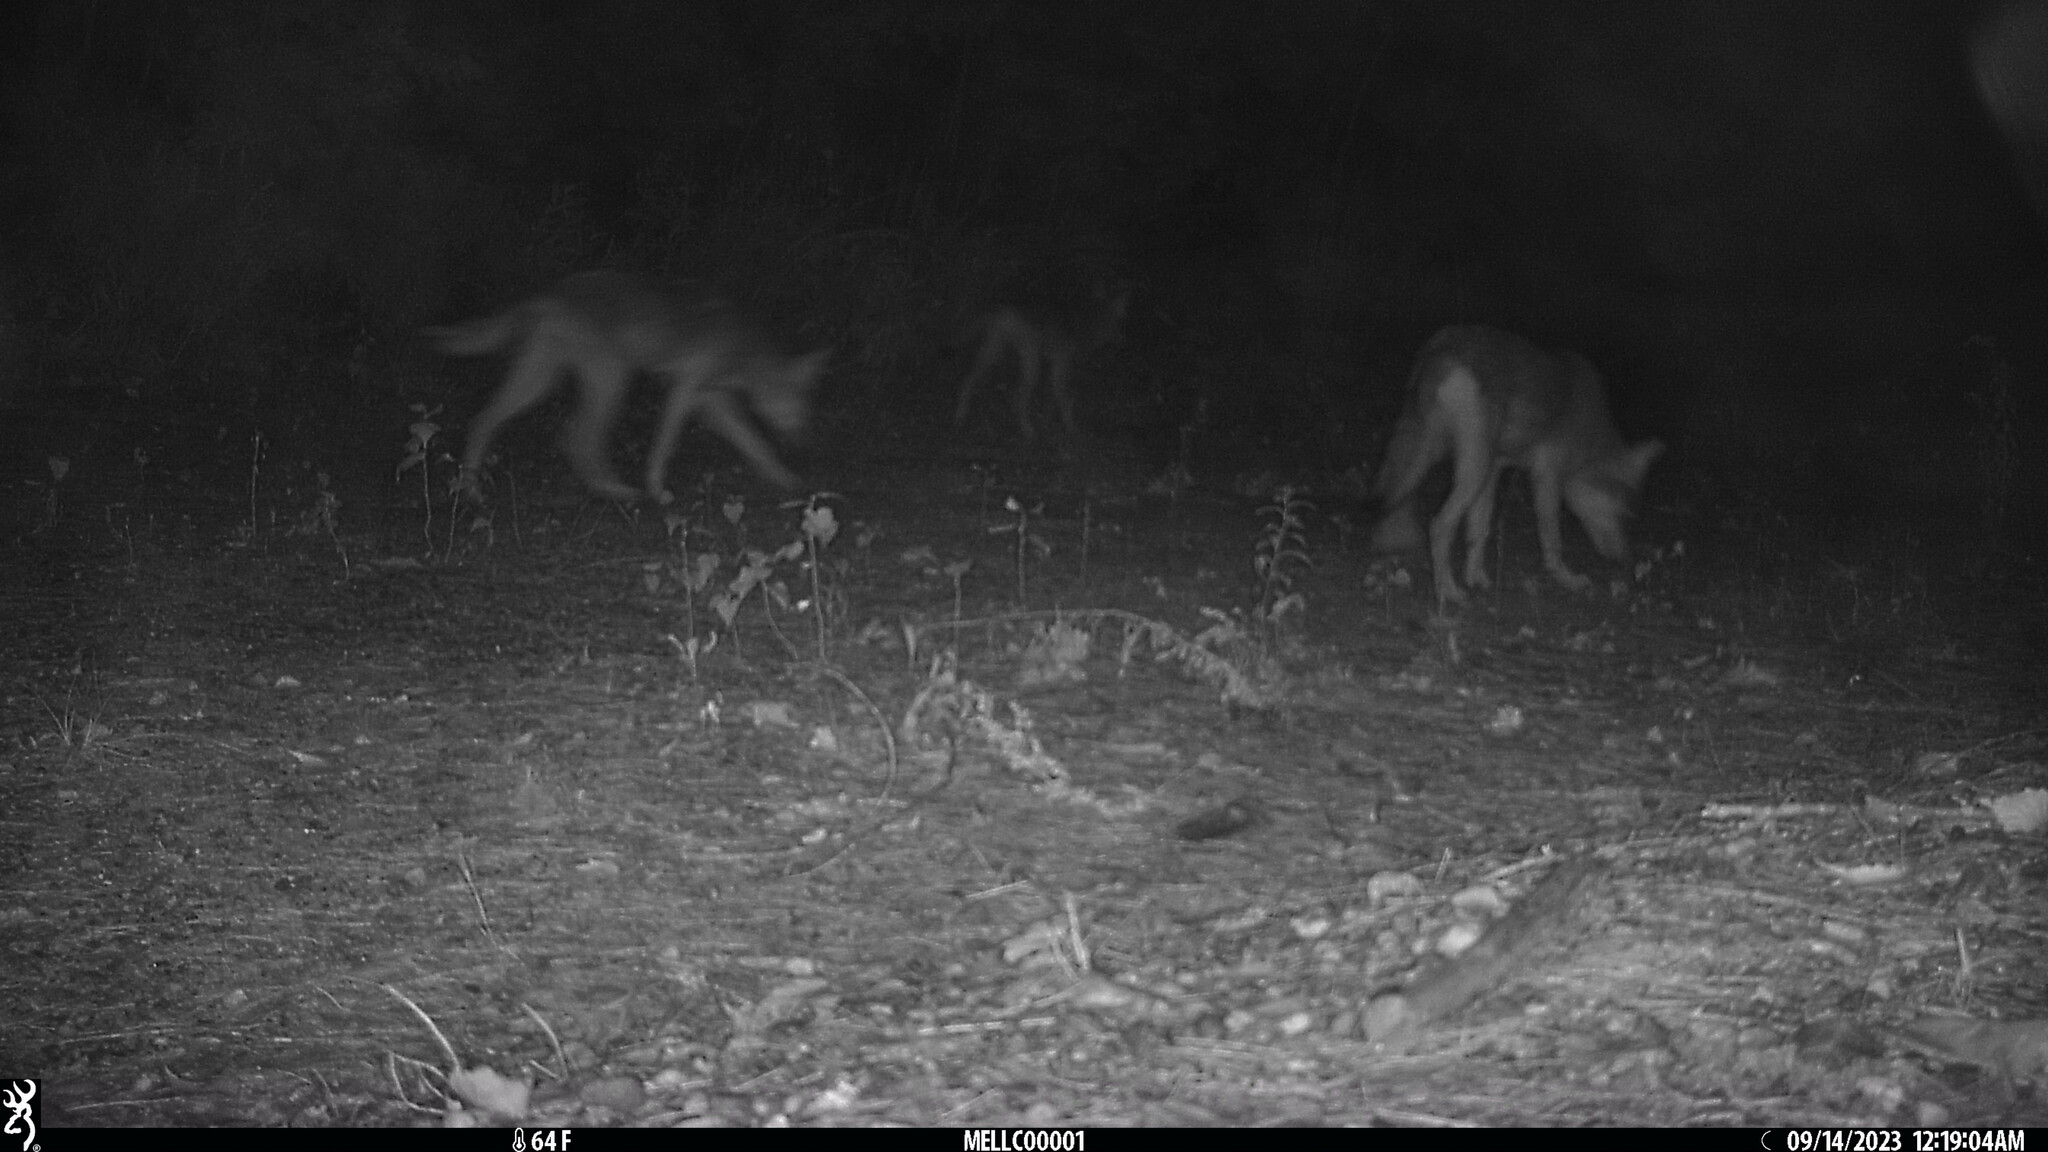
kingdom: Animalia
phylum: Chordata
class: Mammalia
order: Carnivora
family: Canidae
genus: Canis
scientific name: Canis latrans
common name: Coyote
